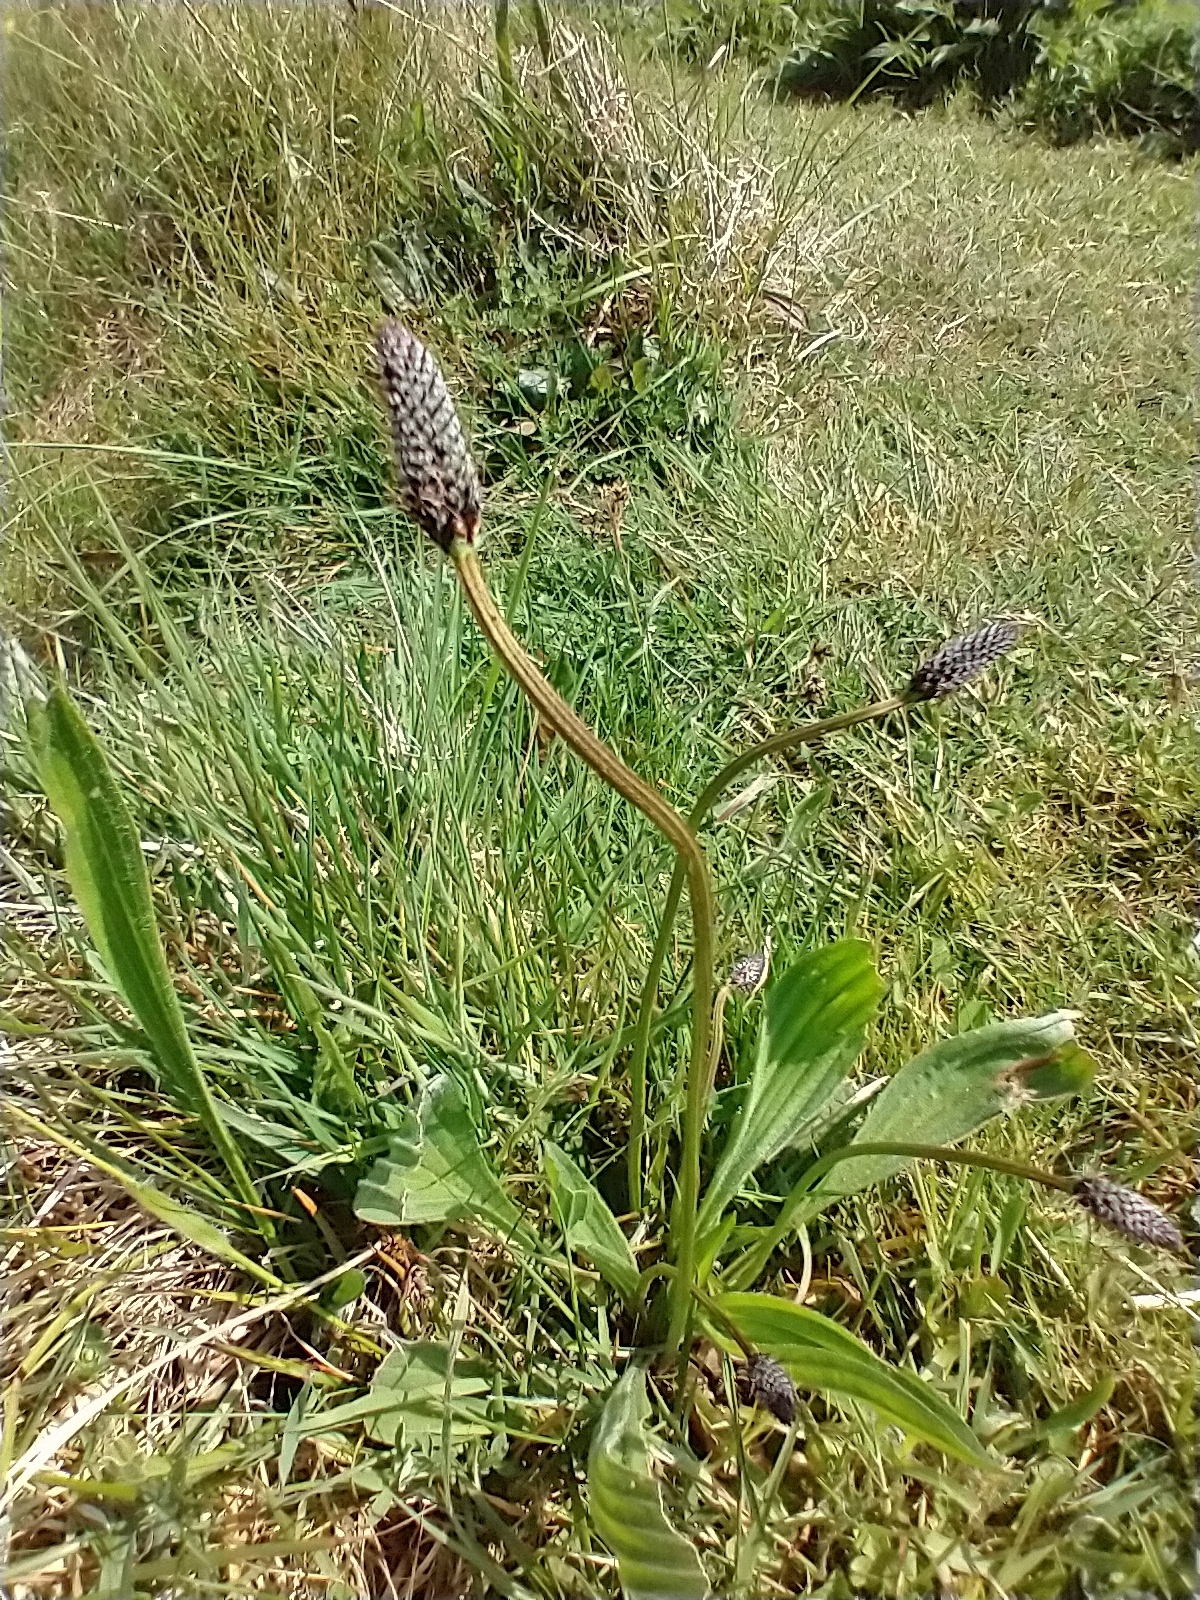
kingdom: Plantae
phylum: Tracheophyta
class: Magnoliopsida
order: Lamiales
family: Plantaginaceae
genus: Plantago
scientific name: Plantago lanceolata
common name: Ribwort plantain
